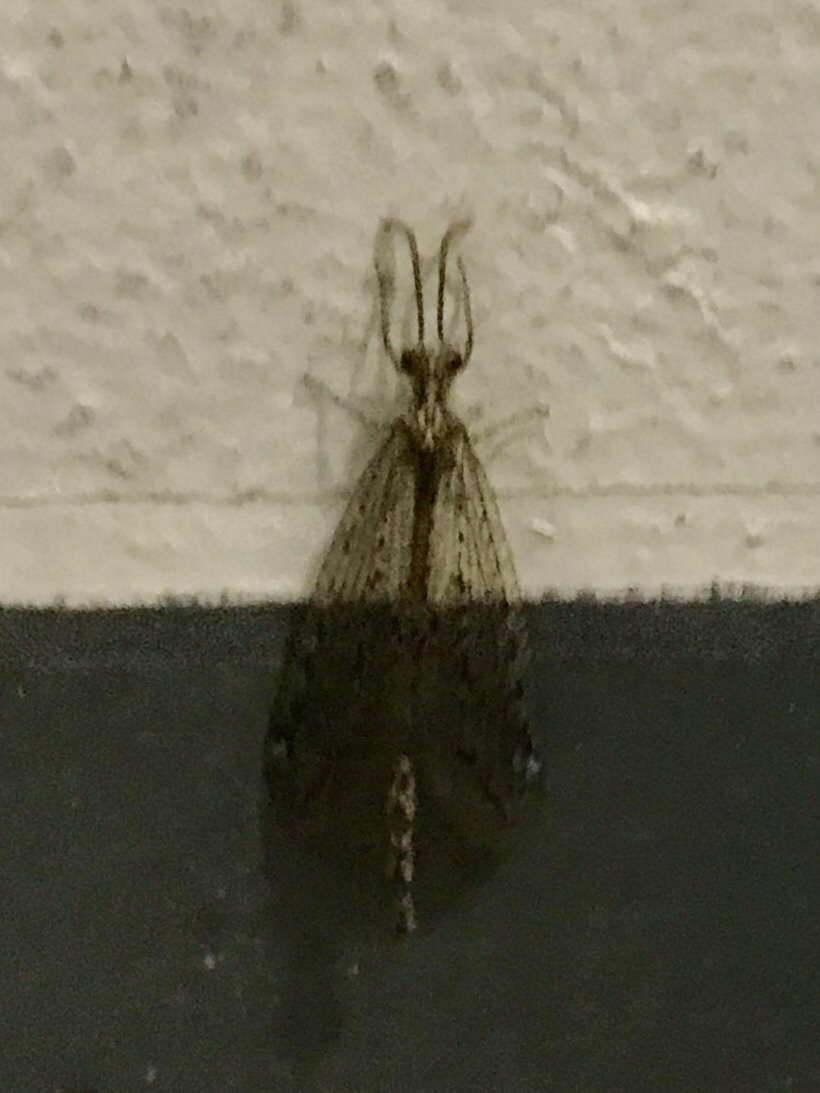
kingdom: Animalia
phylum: Arthropoda
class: Insecta
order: Neuroptera
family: Myrmeleontidae
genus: Brachynemurus
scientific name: Brachynemurus californicus
